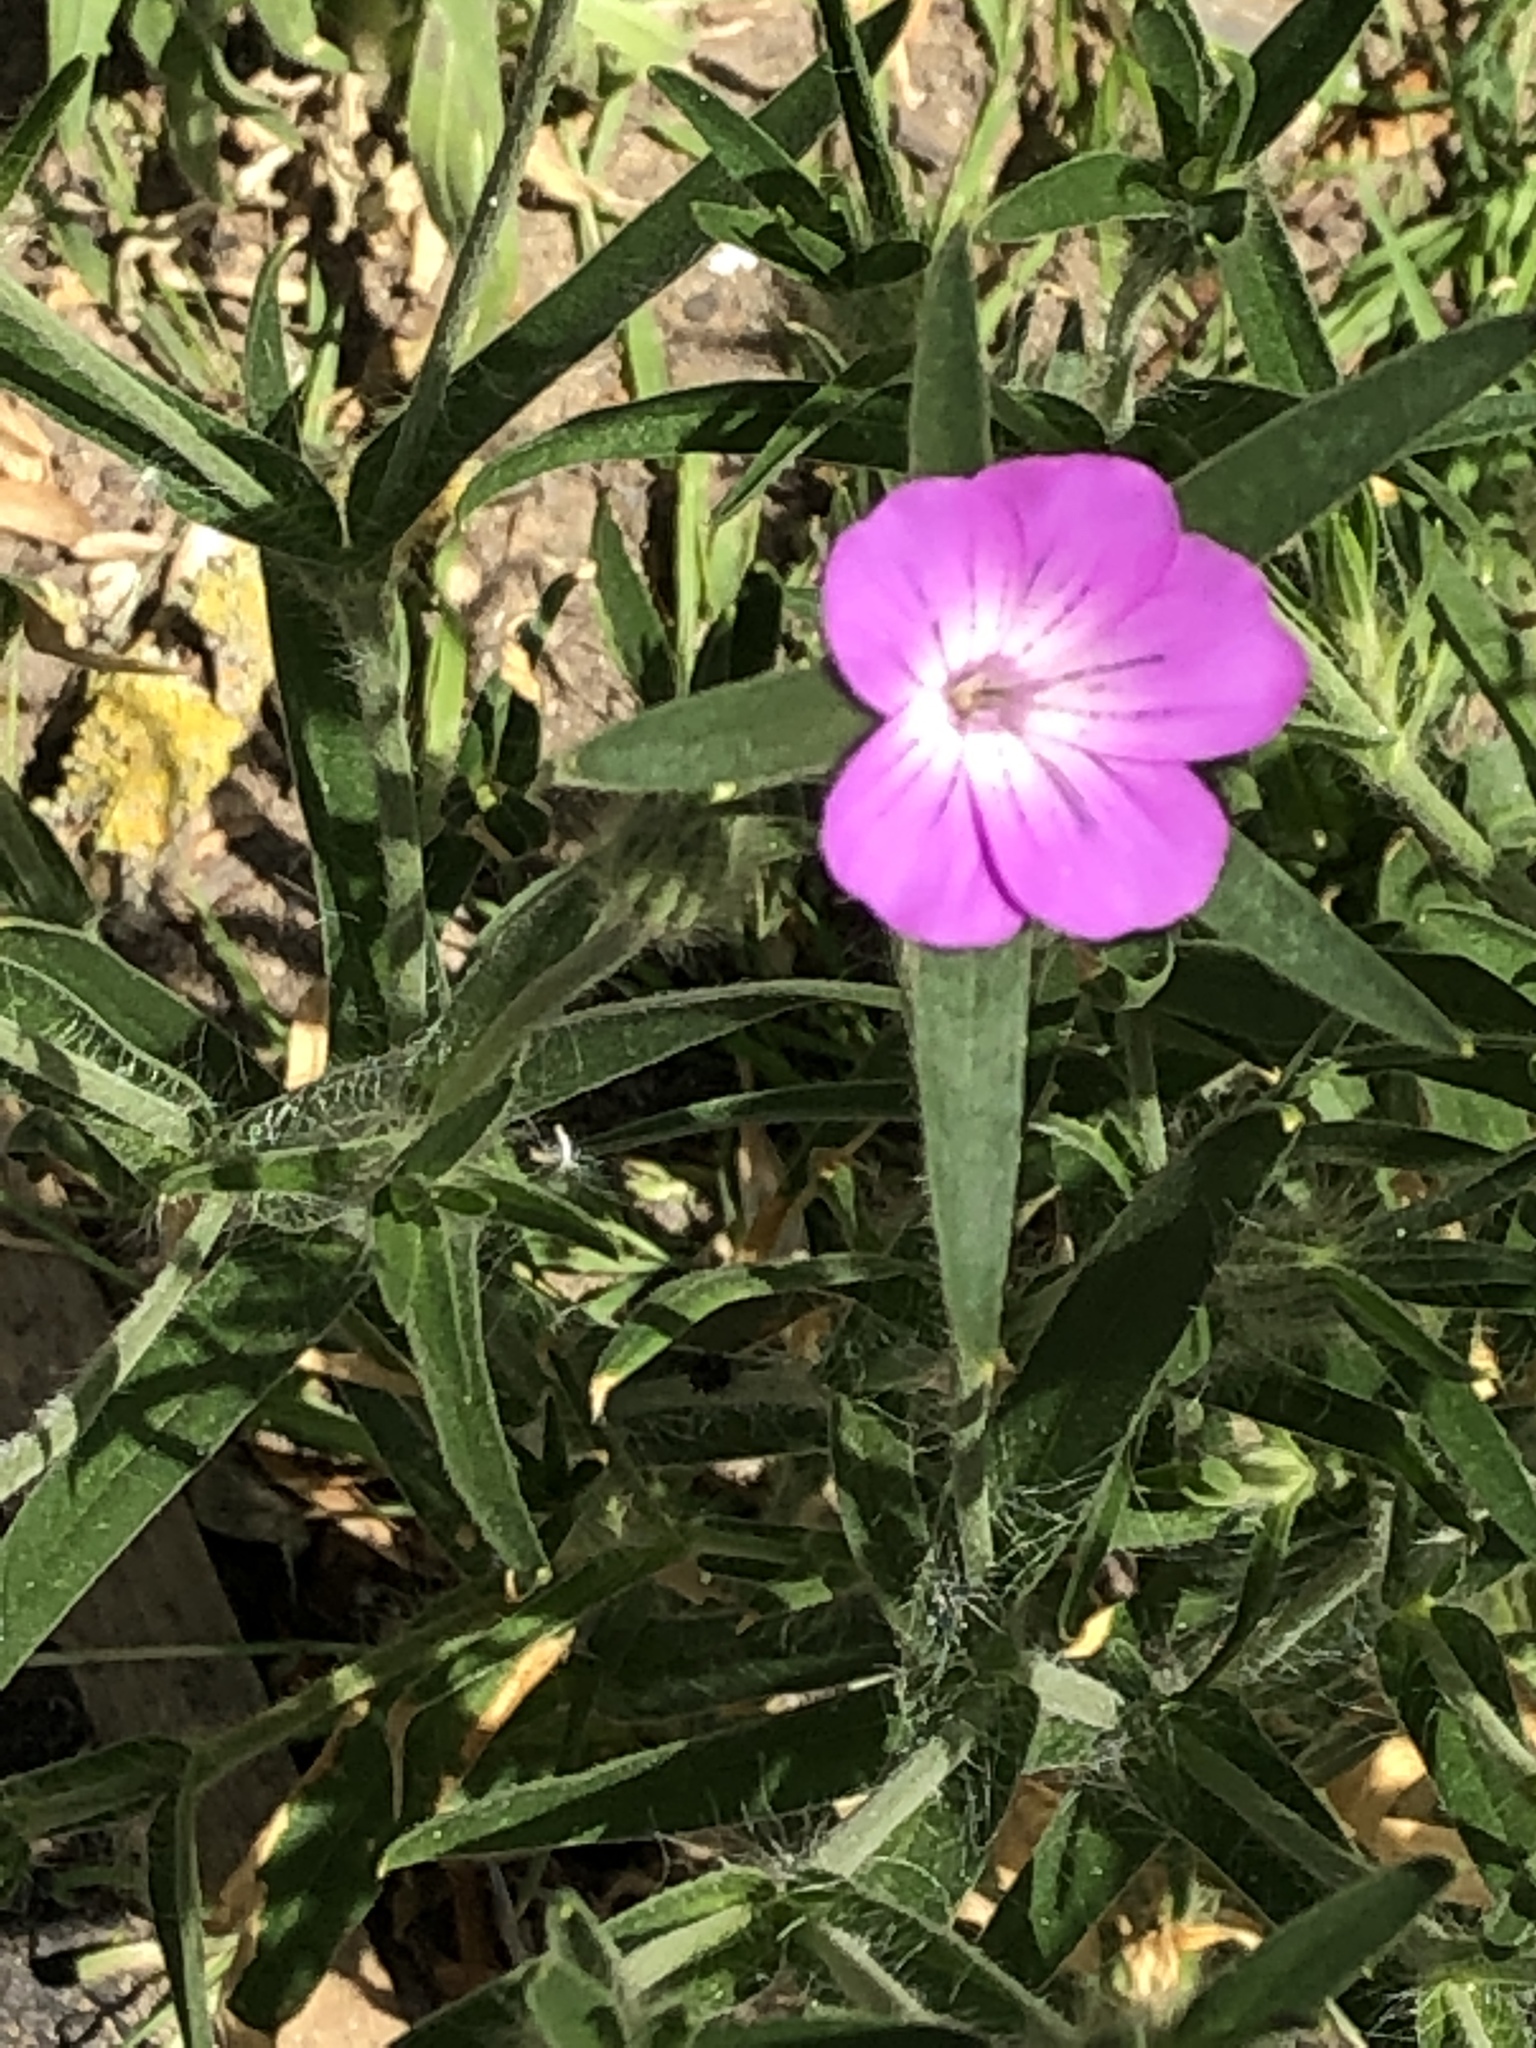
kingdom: Plantae
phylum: Tracheophyta
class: Magnoliopsida
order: Caryophyllales
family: Caryophyllaceae
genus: Agrostemma
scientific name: Agrostemma githago
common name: Common corncockle
